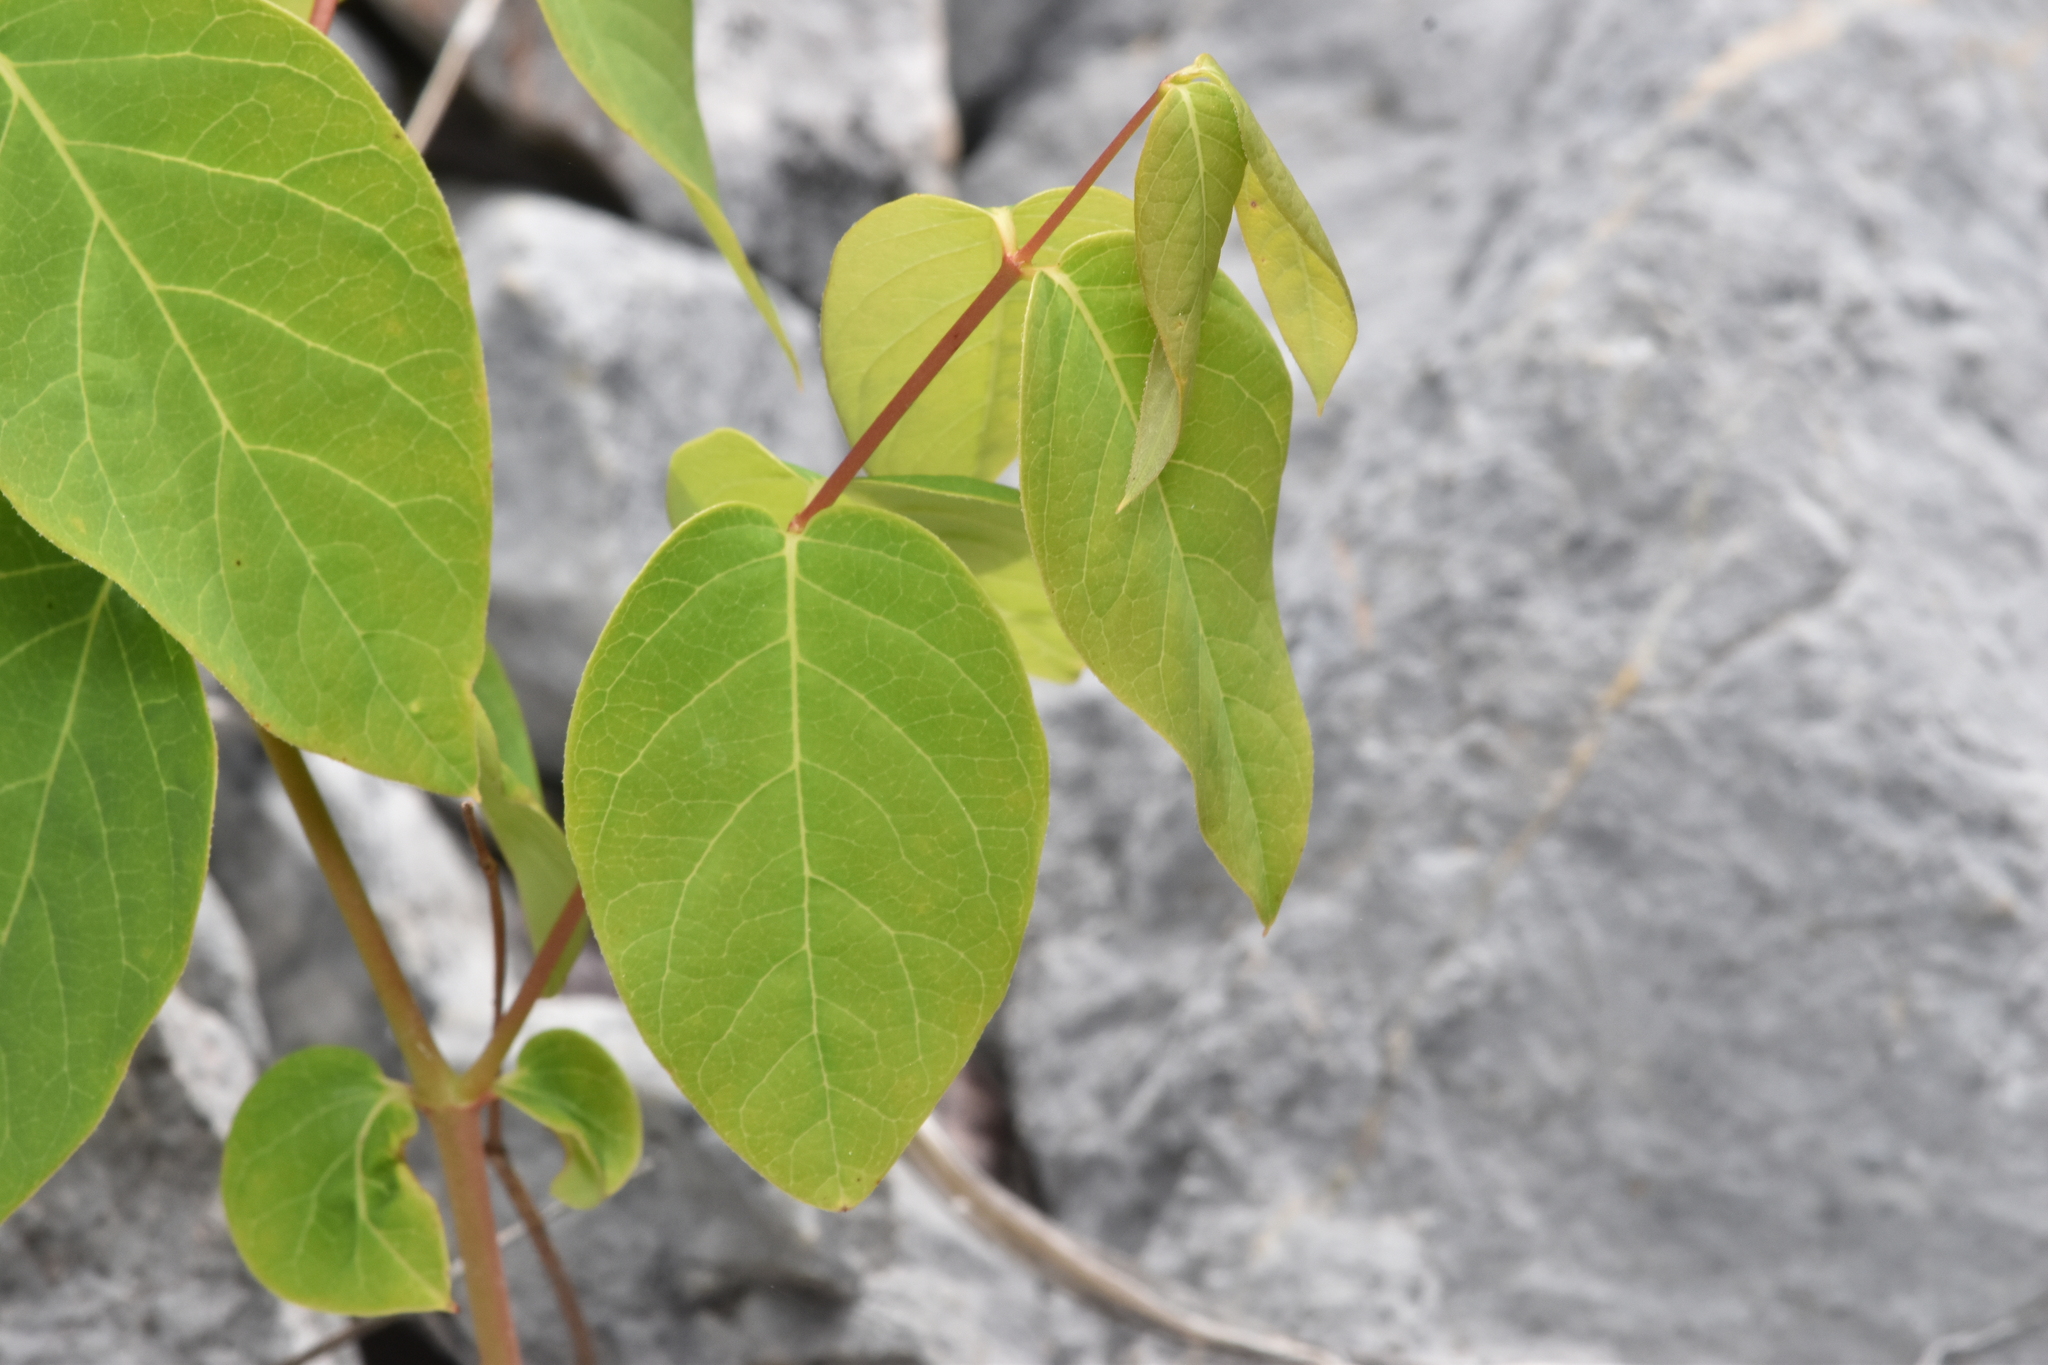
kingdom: Plantae
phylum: Tracheophyta
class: Magnoliopsida
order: Gentianales
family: Apocynaceae
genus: Apocynum
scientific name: Apocynum androsaemifolium
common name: Spreading dogbane
